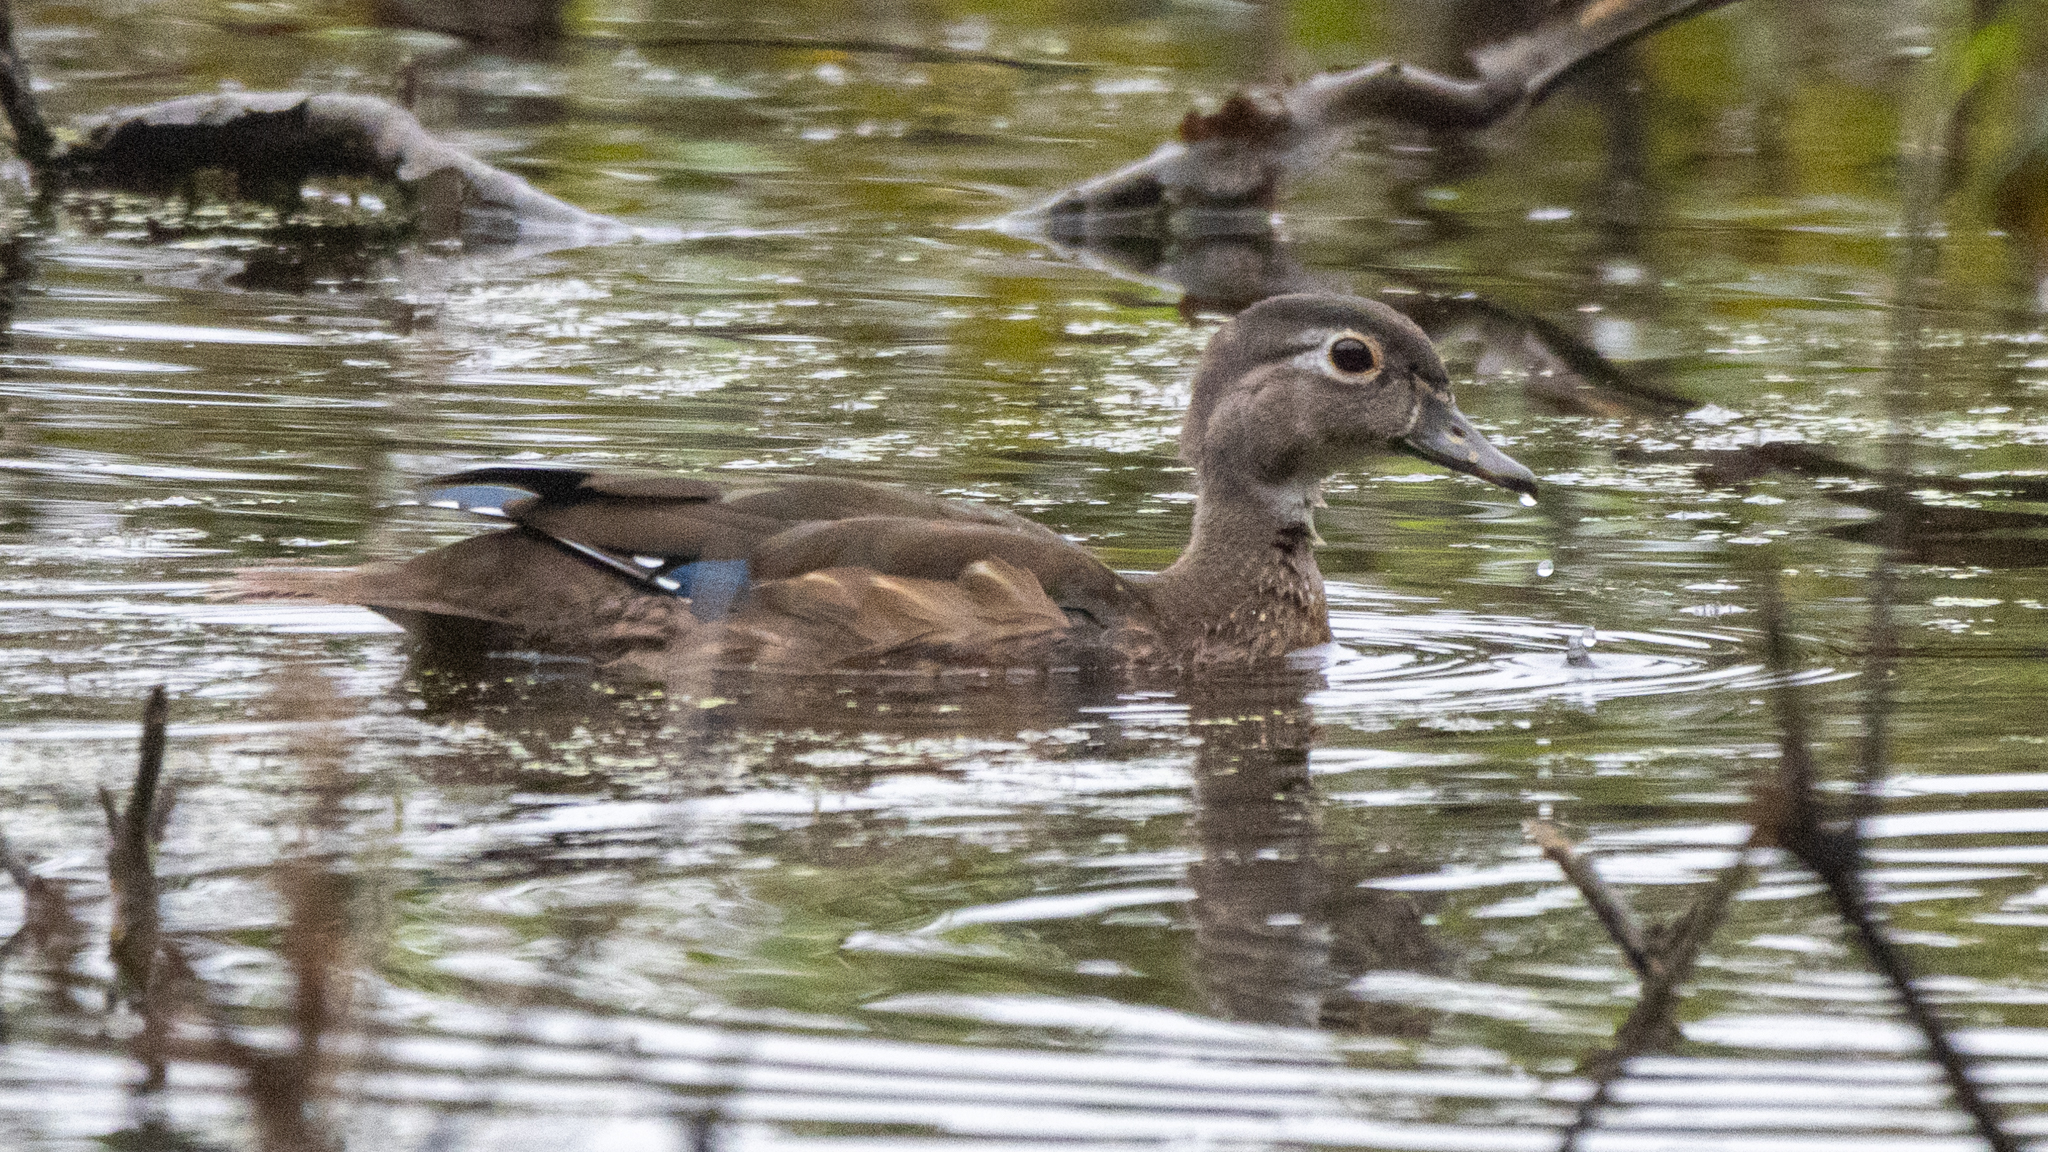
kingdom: Animalia
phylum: Chordata
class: Aves
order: Anseriformes
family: Anatidae
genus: Aix
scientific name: Aix sponsa
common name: Wood duck
